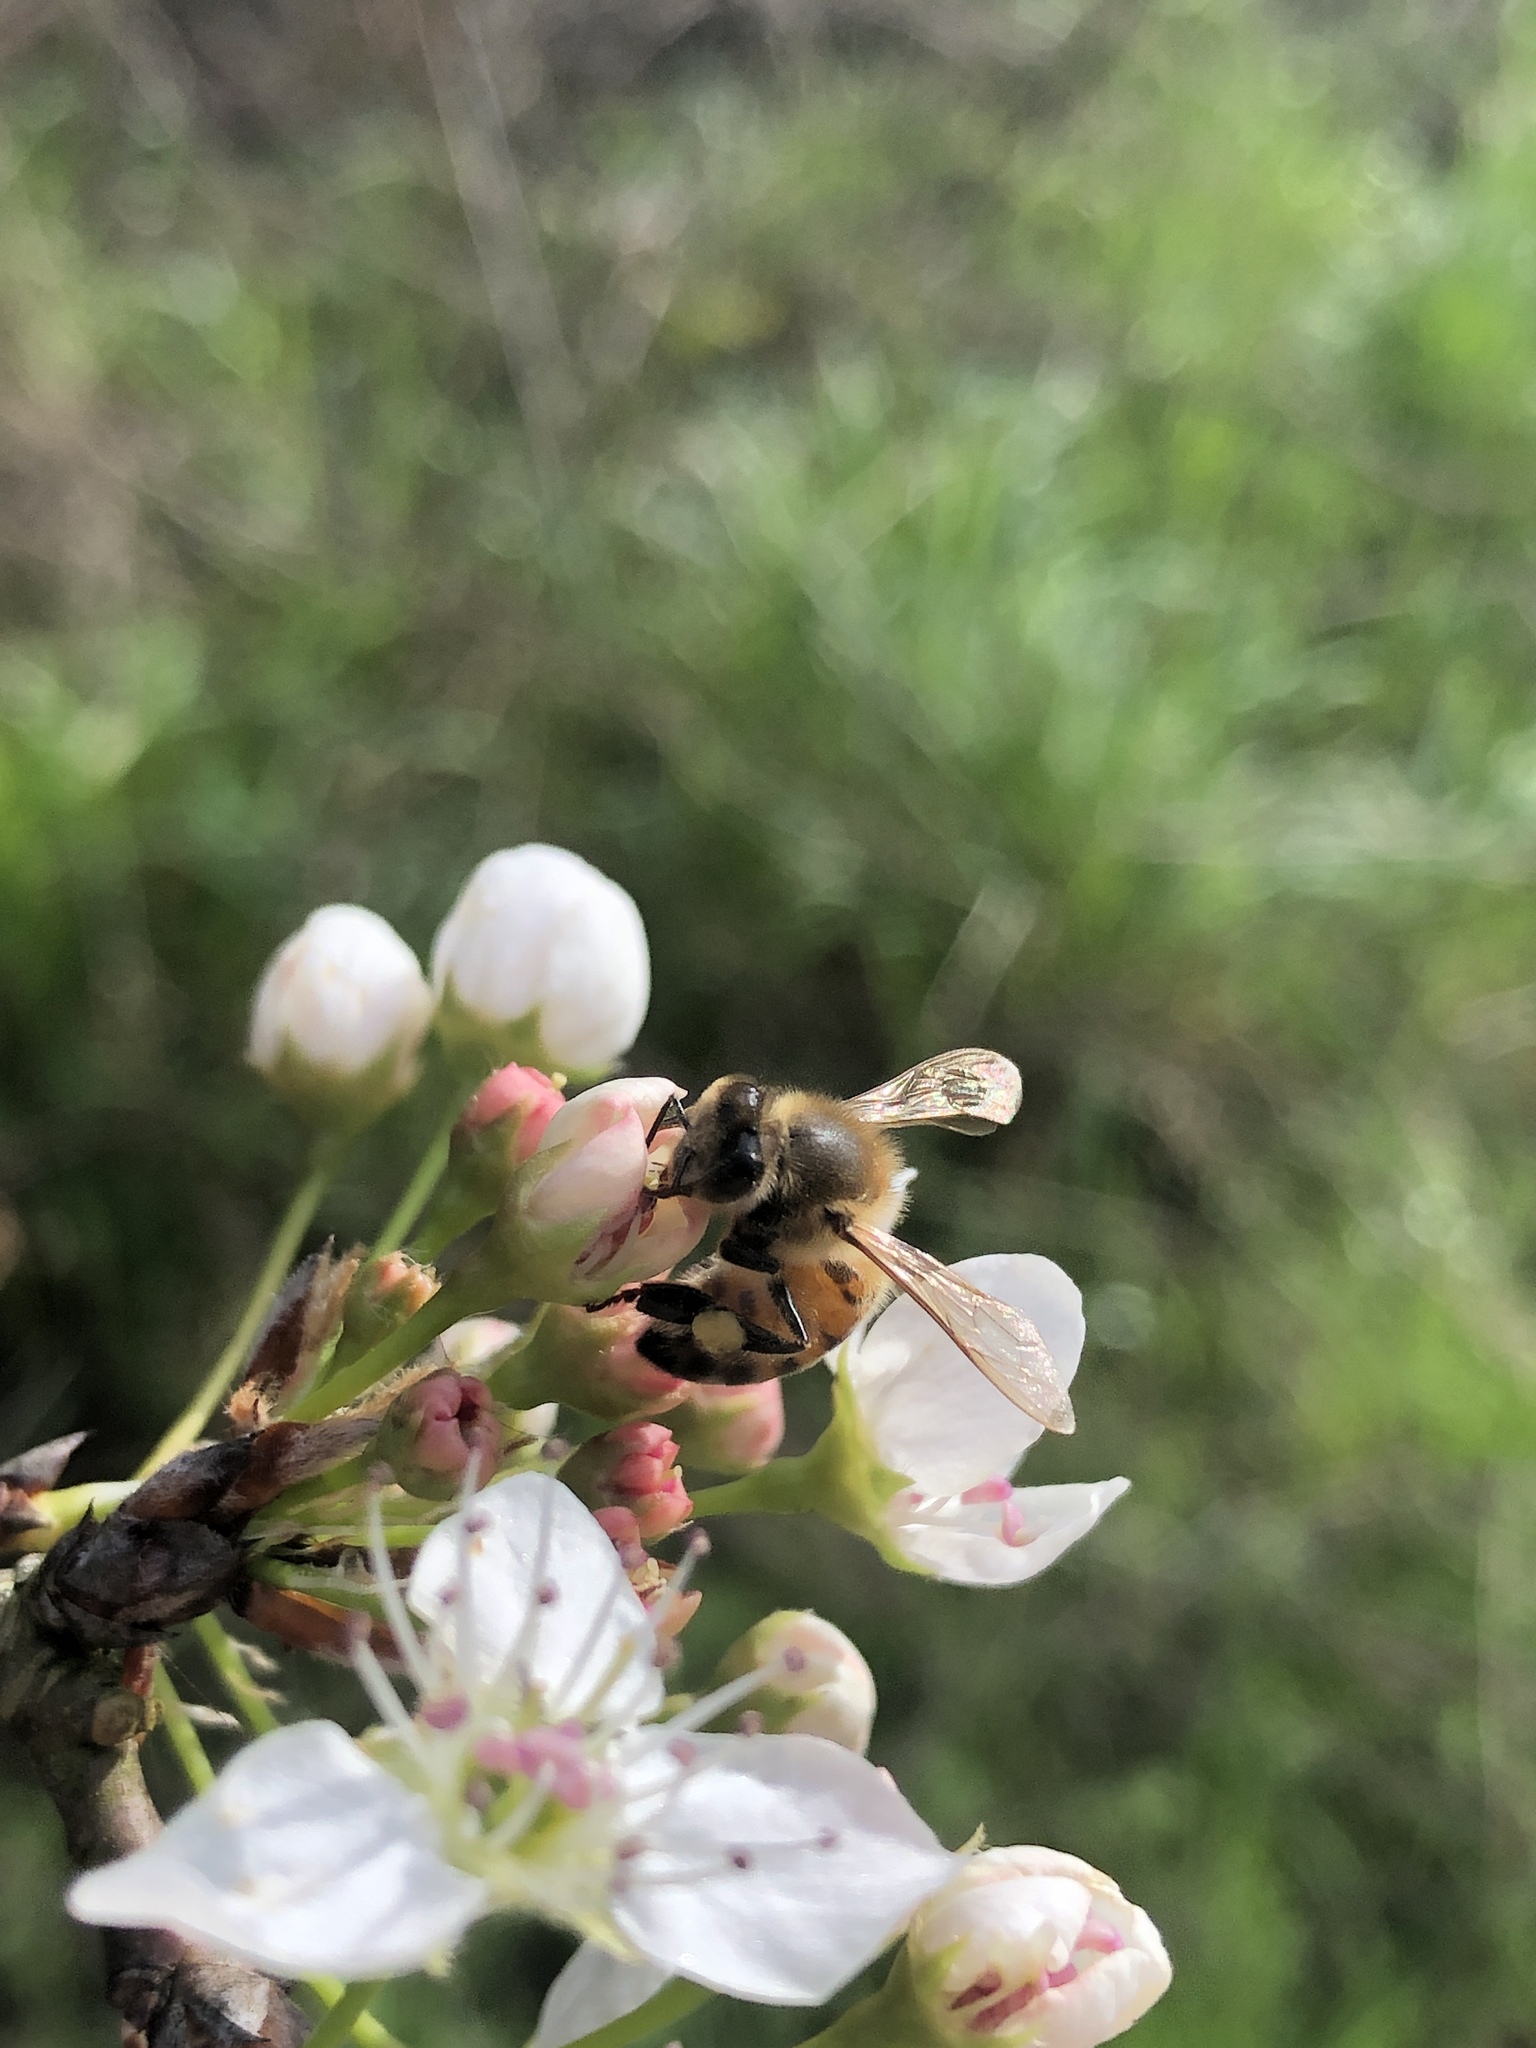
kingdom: Animalia
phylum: Arthropoda
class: Insecta
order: Hymenoptera
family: Apidae
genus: Apis
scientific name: Apis mellifera
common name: Honey bee
